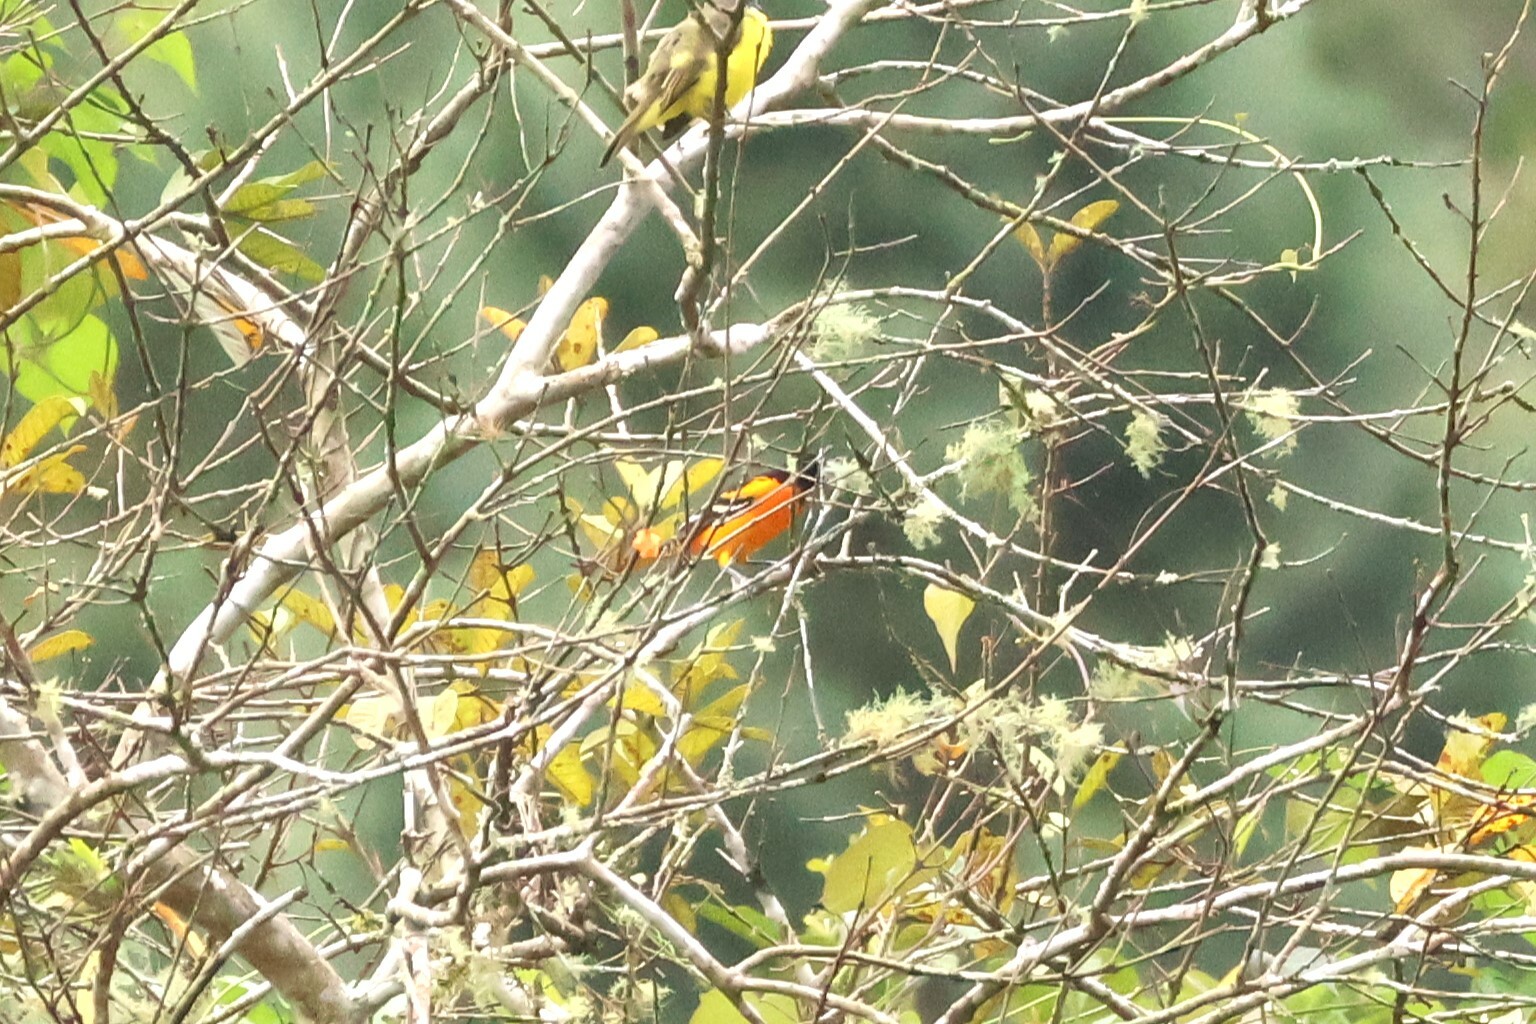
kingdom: Animalia
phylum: Chordata
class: Aves
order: Passeriformes
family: Icteridae
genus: Icterus
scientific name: Icterus galbula
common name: Baltimore oriole
